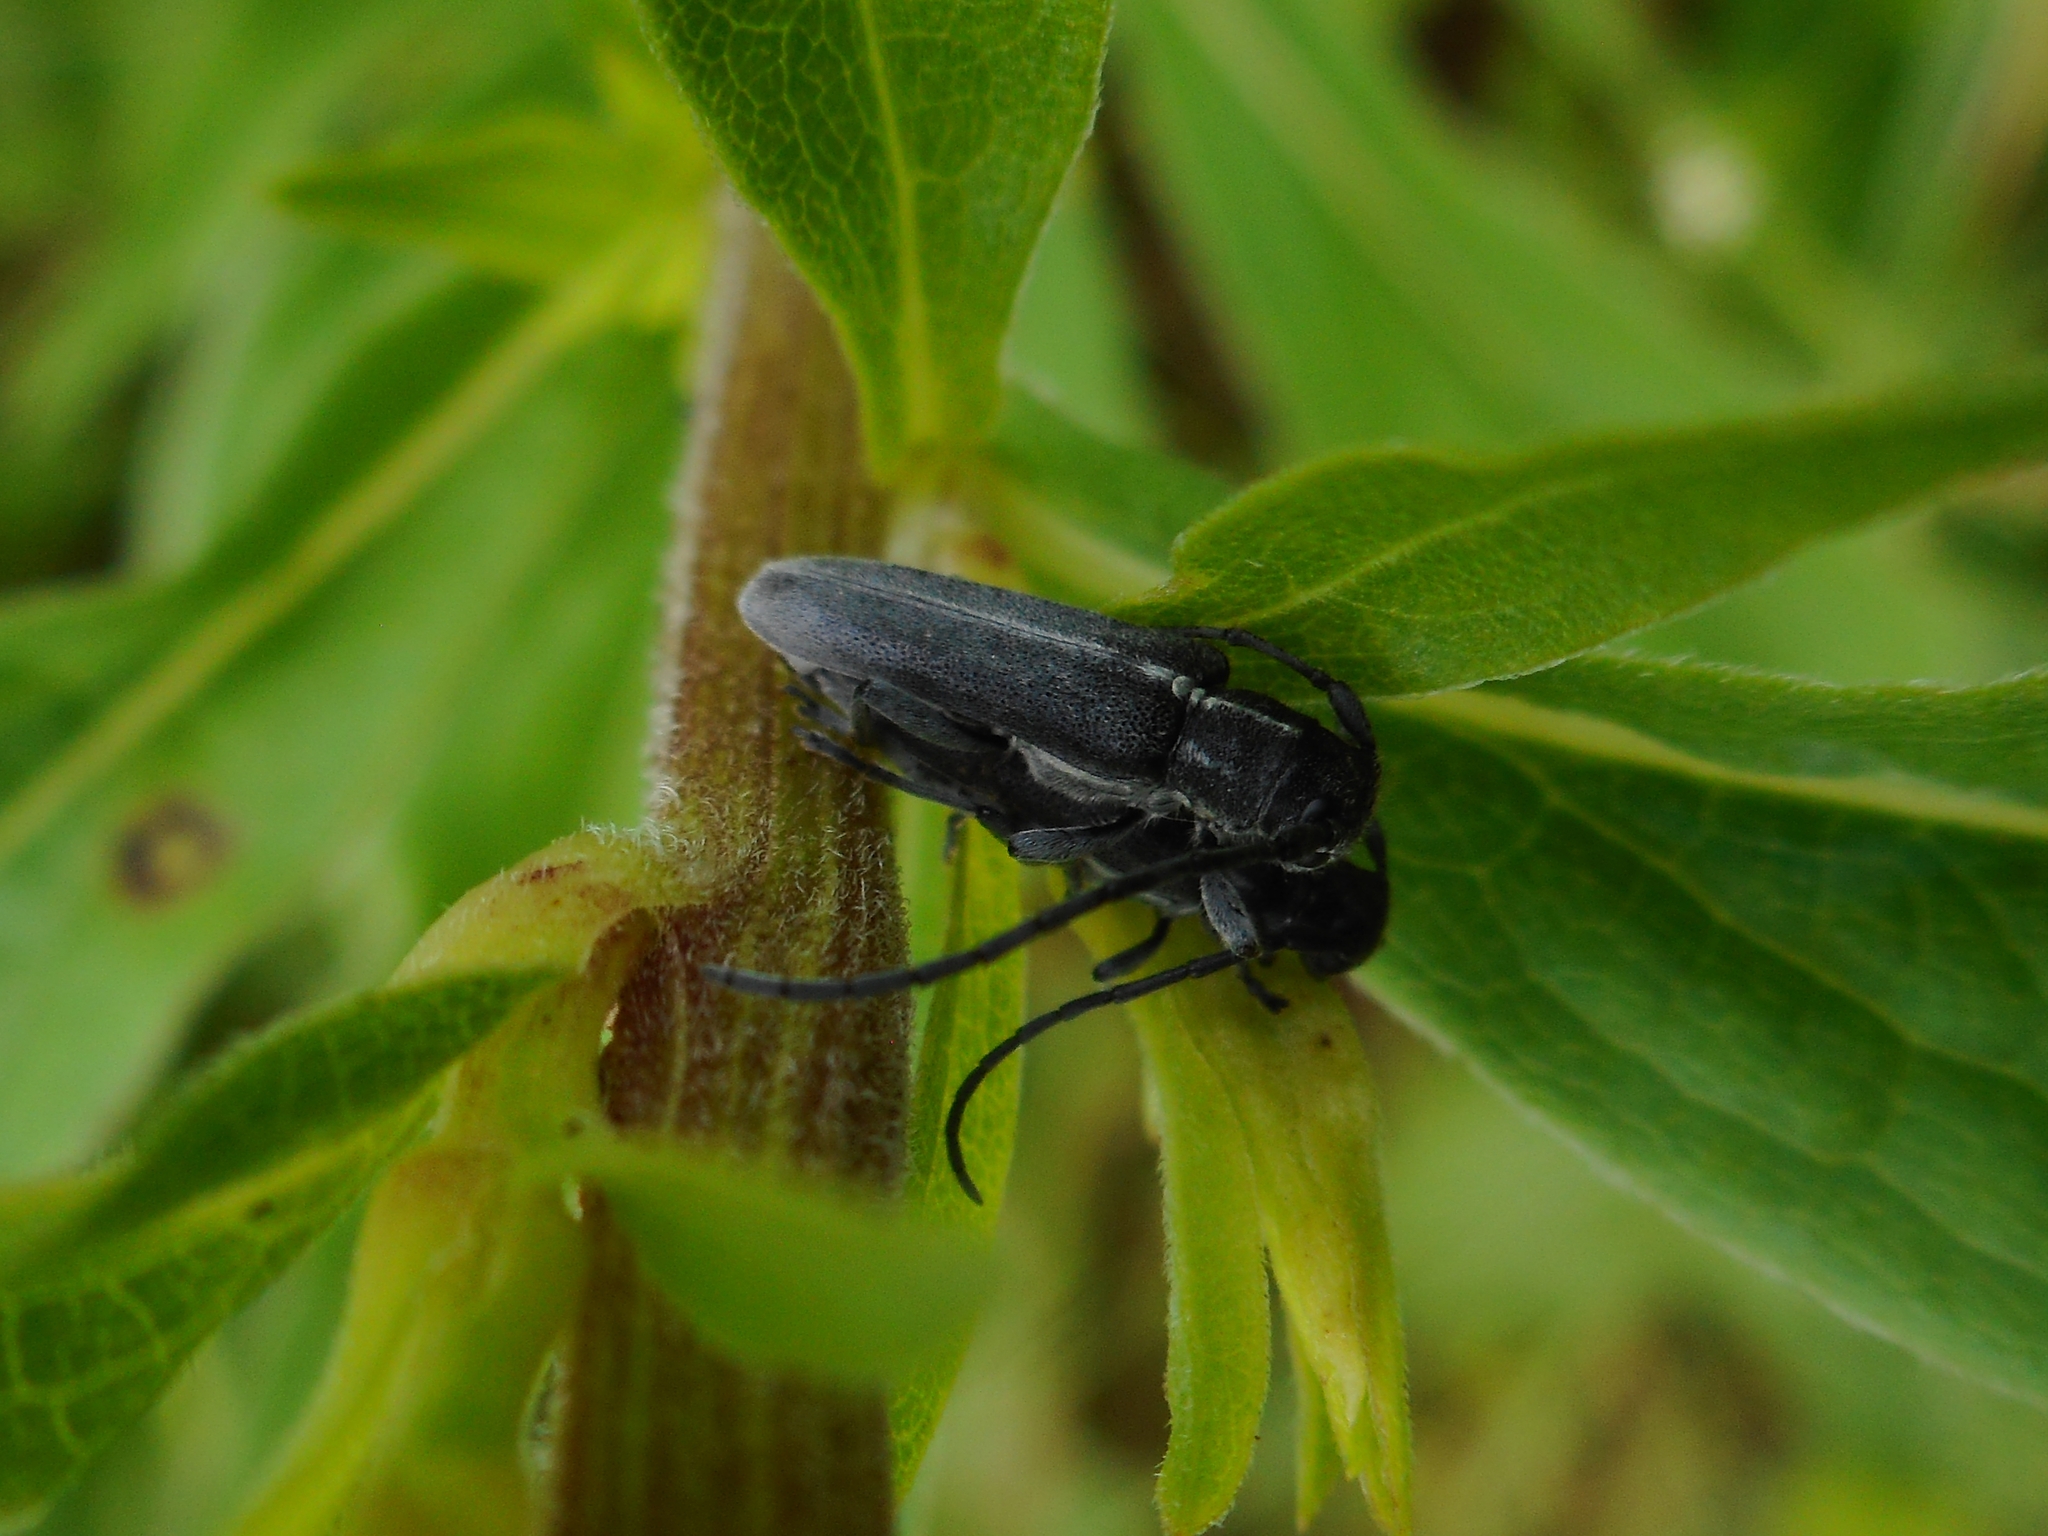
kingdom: Animalia
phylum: Arthropoda
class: Insecta
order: Coleoptera
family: Cerambycidae
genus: Phytoecia
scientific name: Phytoecia nigricornis
